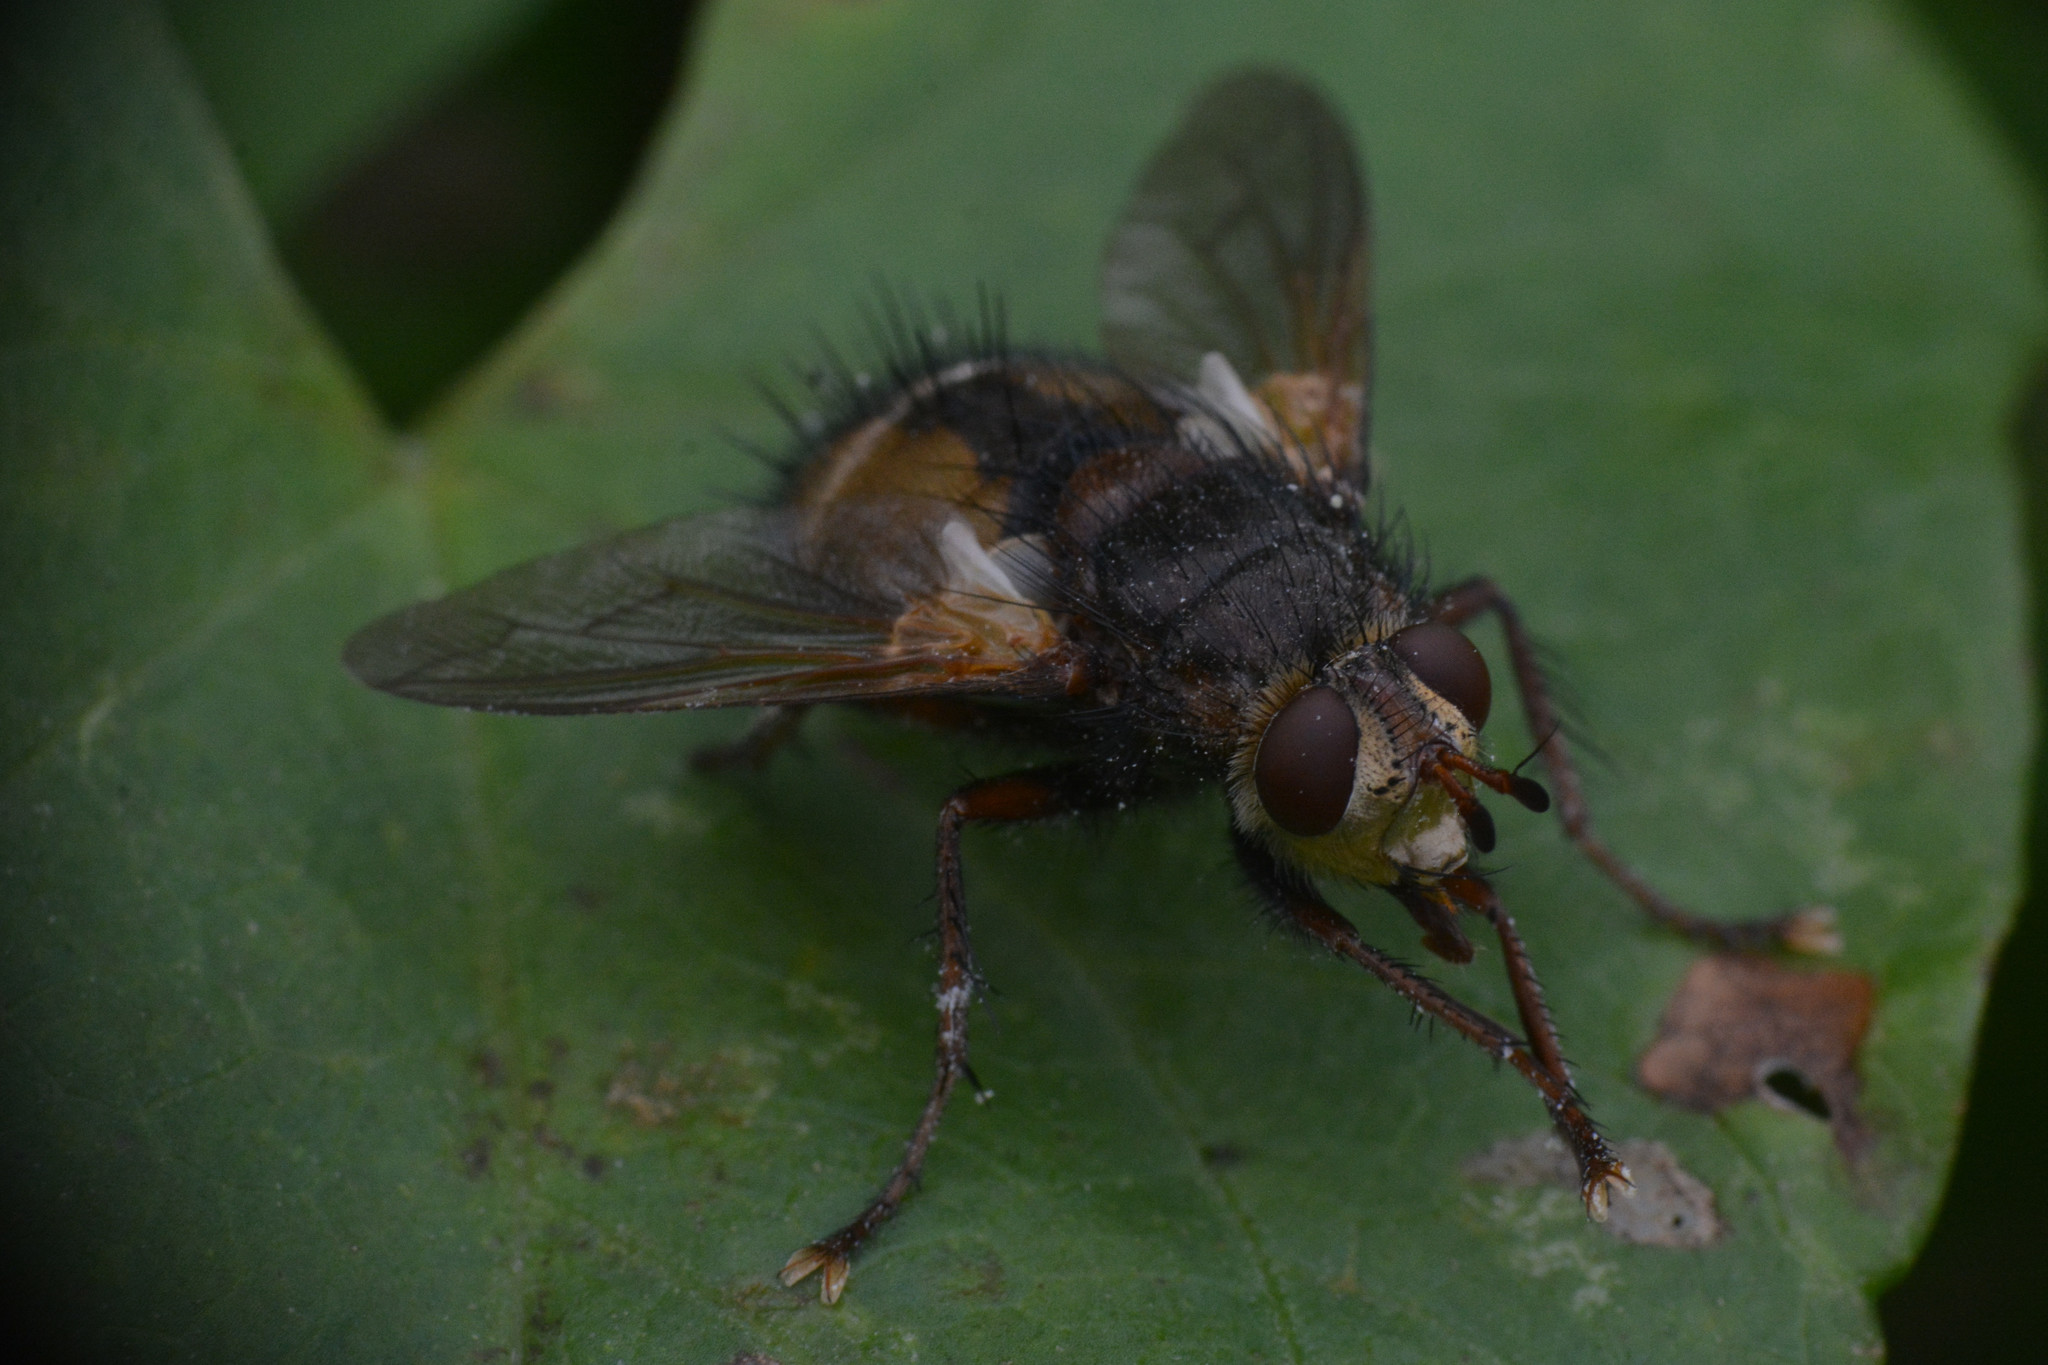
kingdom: Animalia
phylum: Arthropoda
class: Insecta
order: Diptera
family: Tachinidae
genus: Tachina
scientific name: Tachina fera
